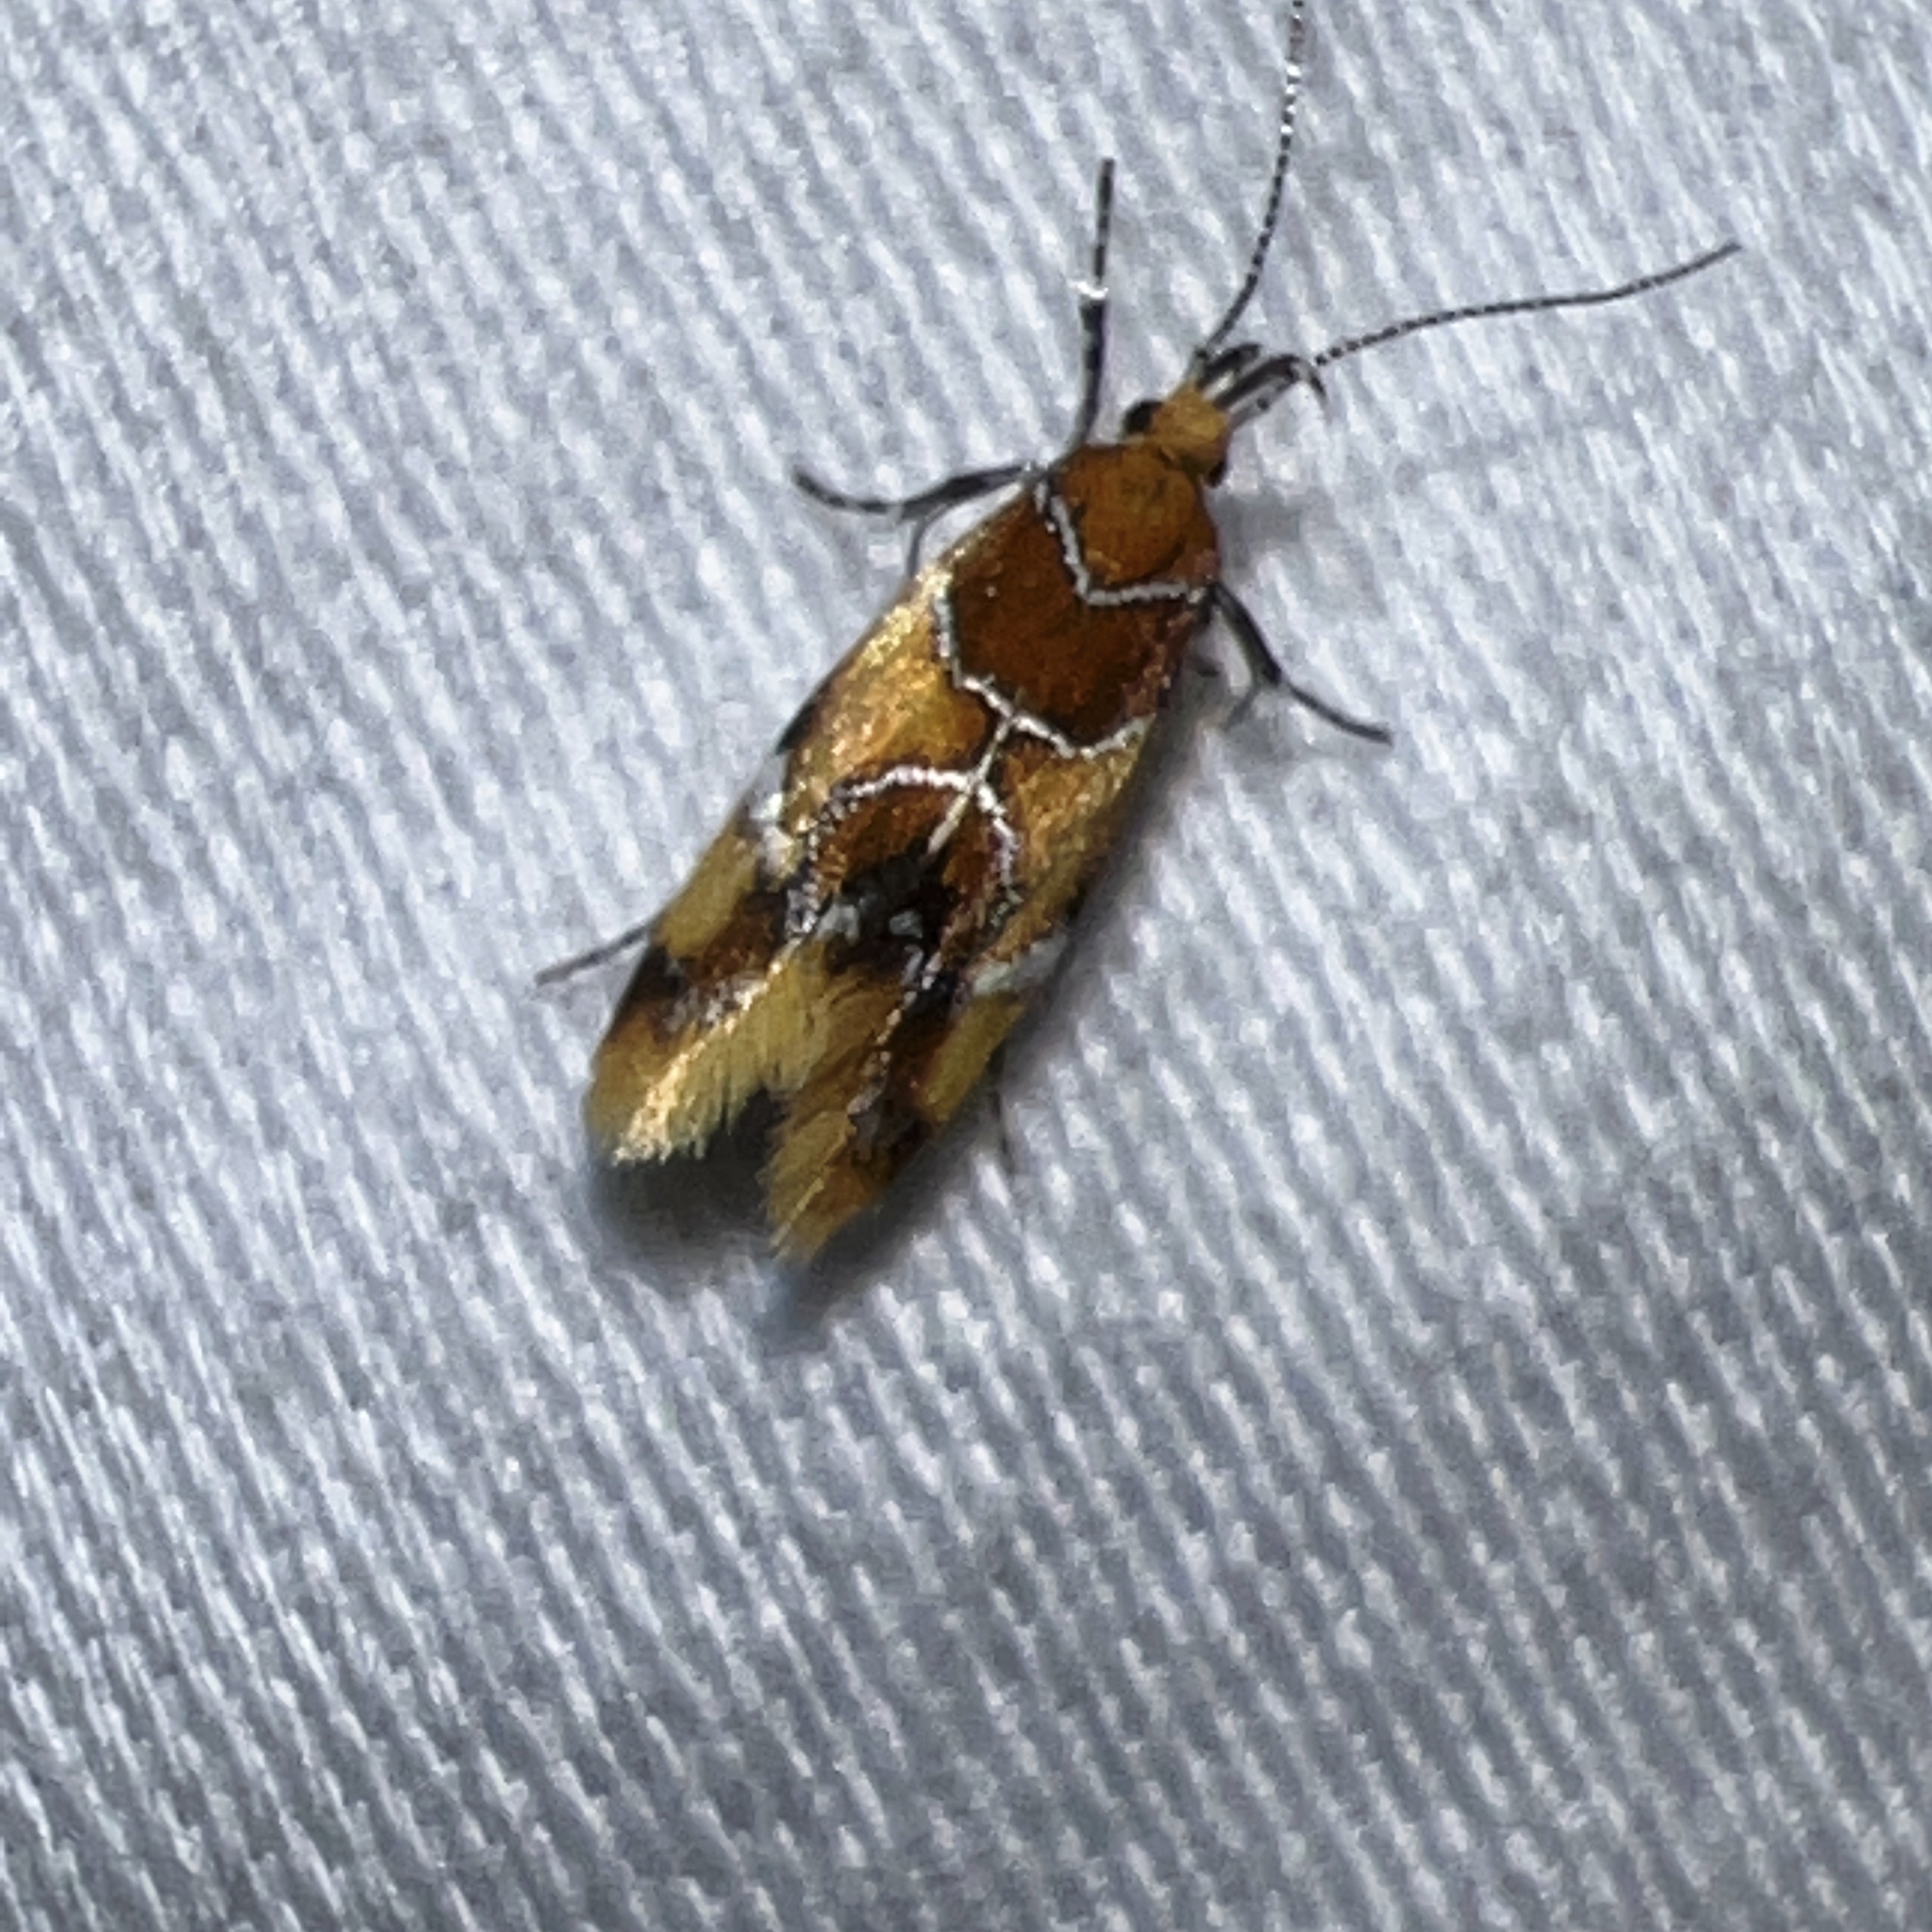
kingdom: Animalia
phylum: Arthropoda
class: Insecta
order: Lepidoptera
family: Oecophoridae
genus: Callima
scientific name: Callima argenticinctella
